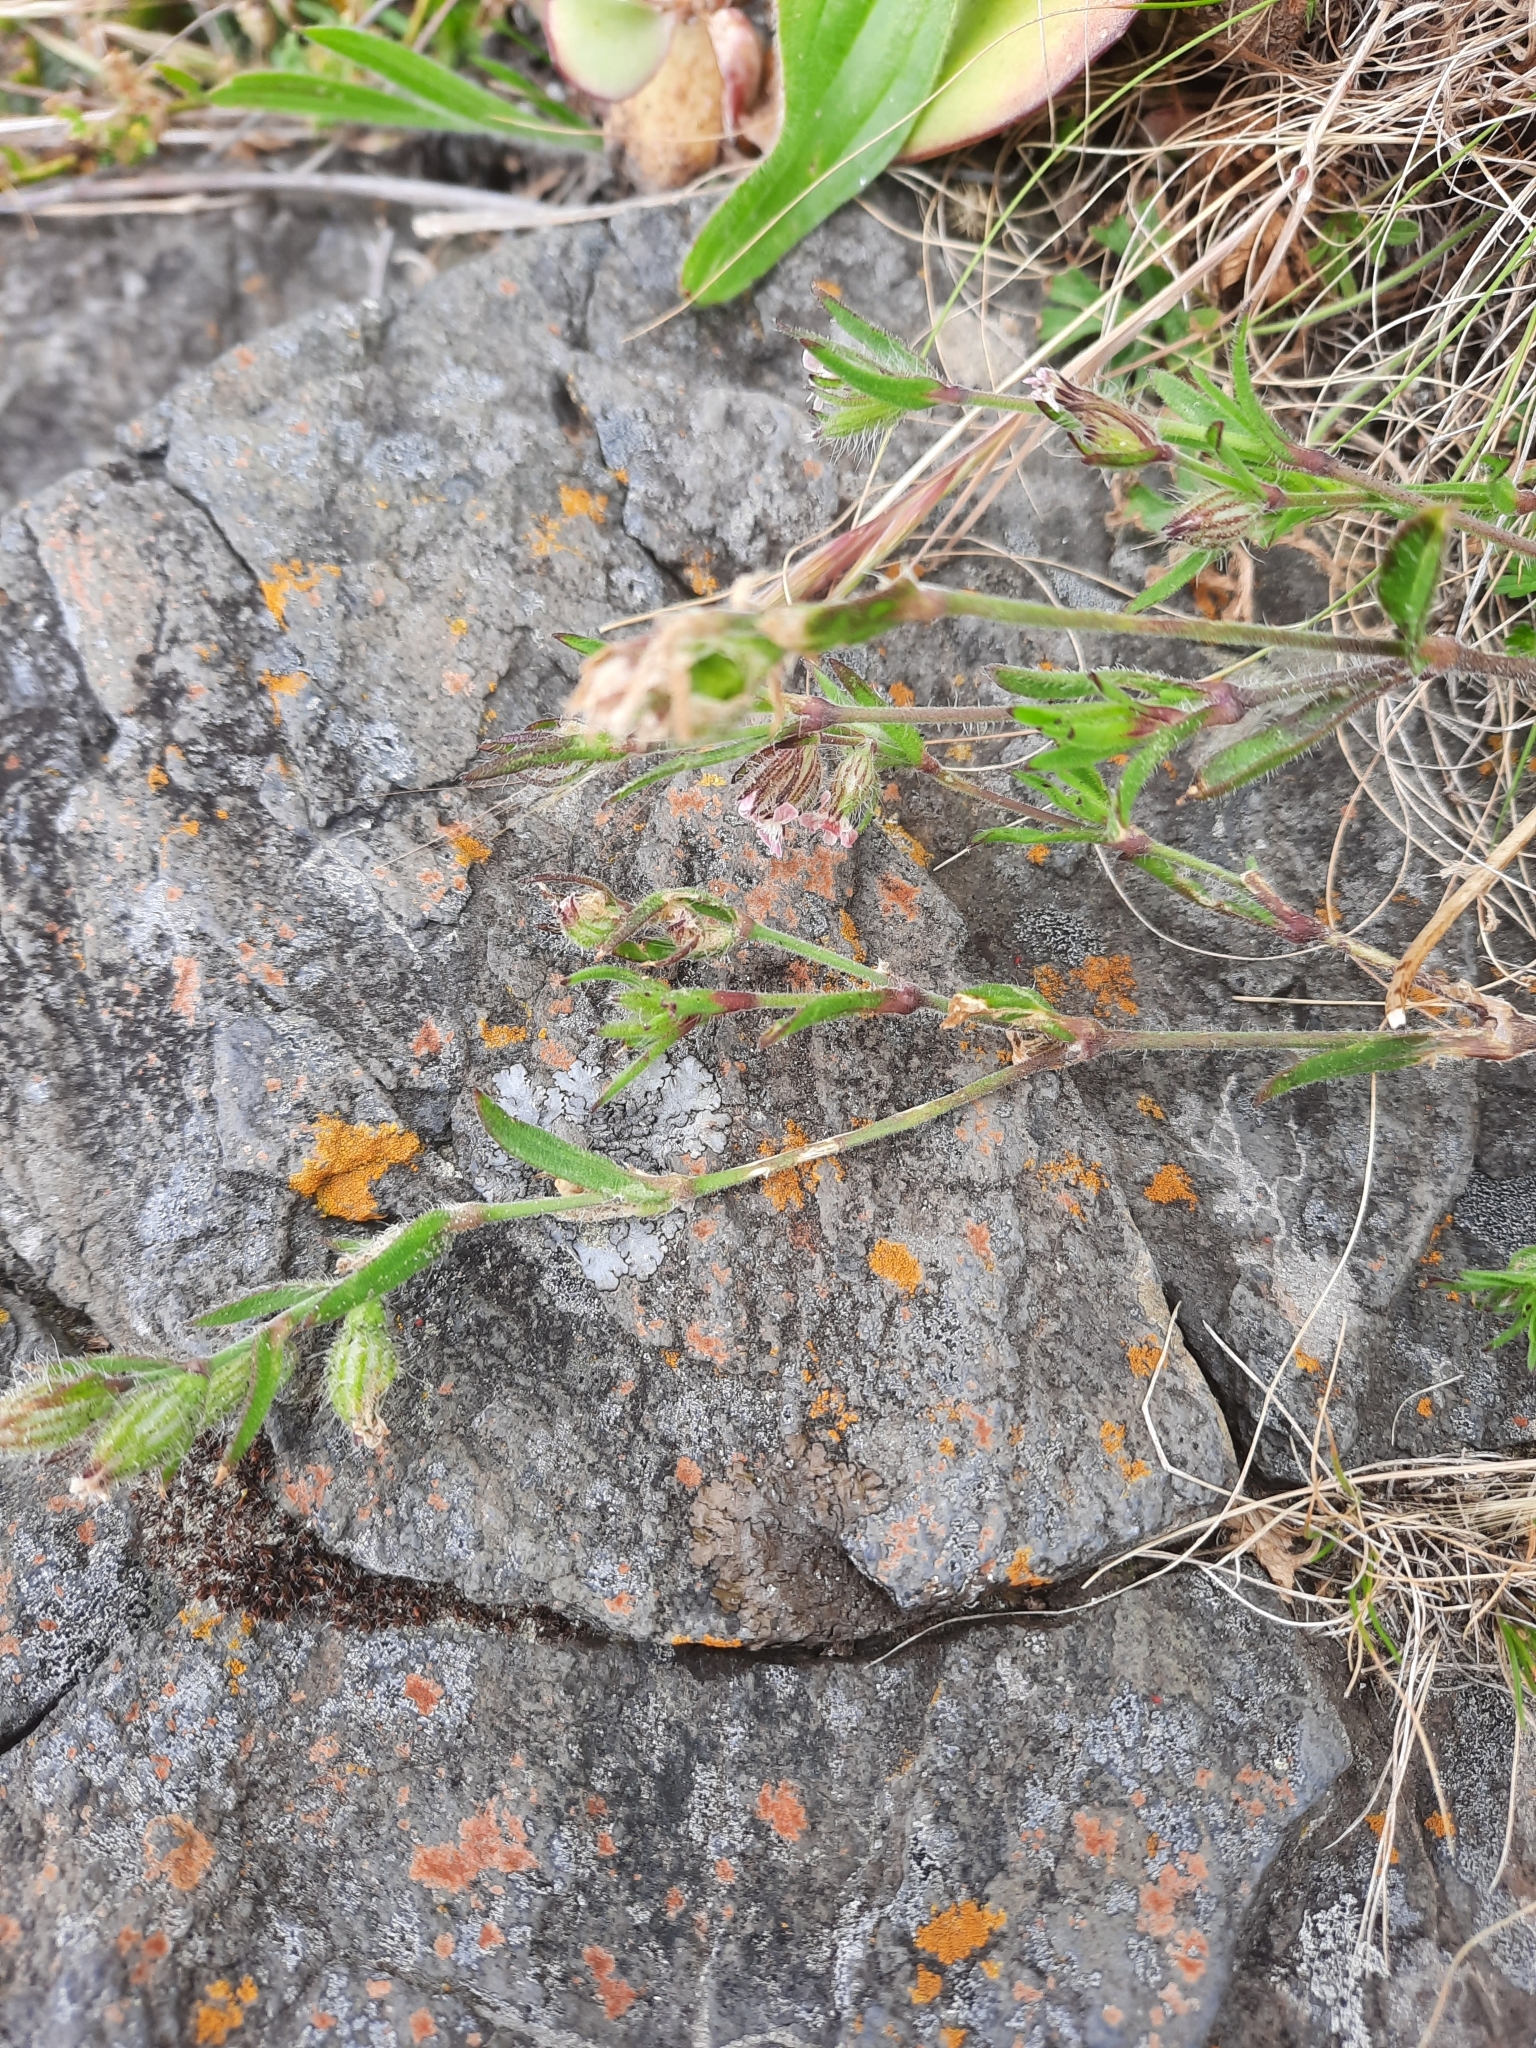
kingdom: Plantae
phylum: Tracheophyta
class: Magnoliopsida
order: Caryophyllales
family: Caryophyllaceae
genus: Silene
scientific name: Silene gallica
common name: Small-flowered catchfly
